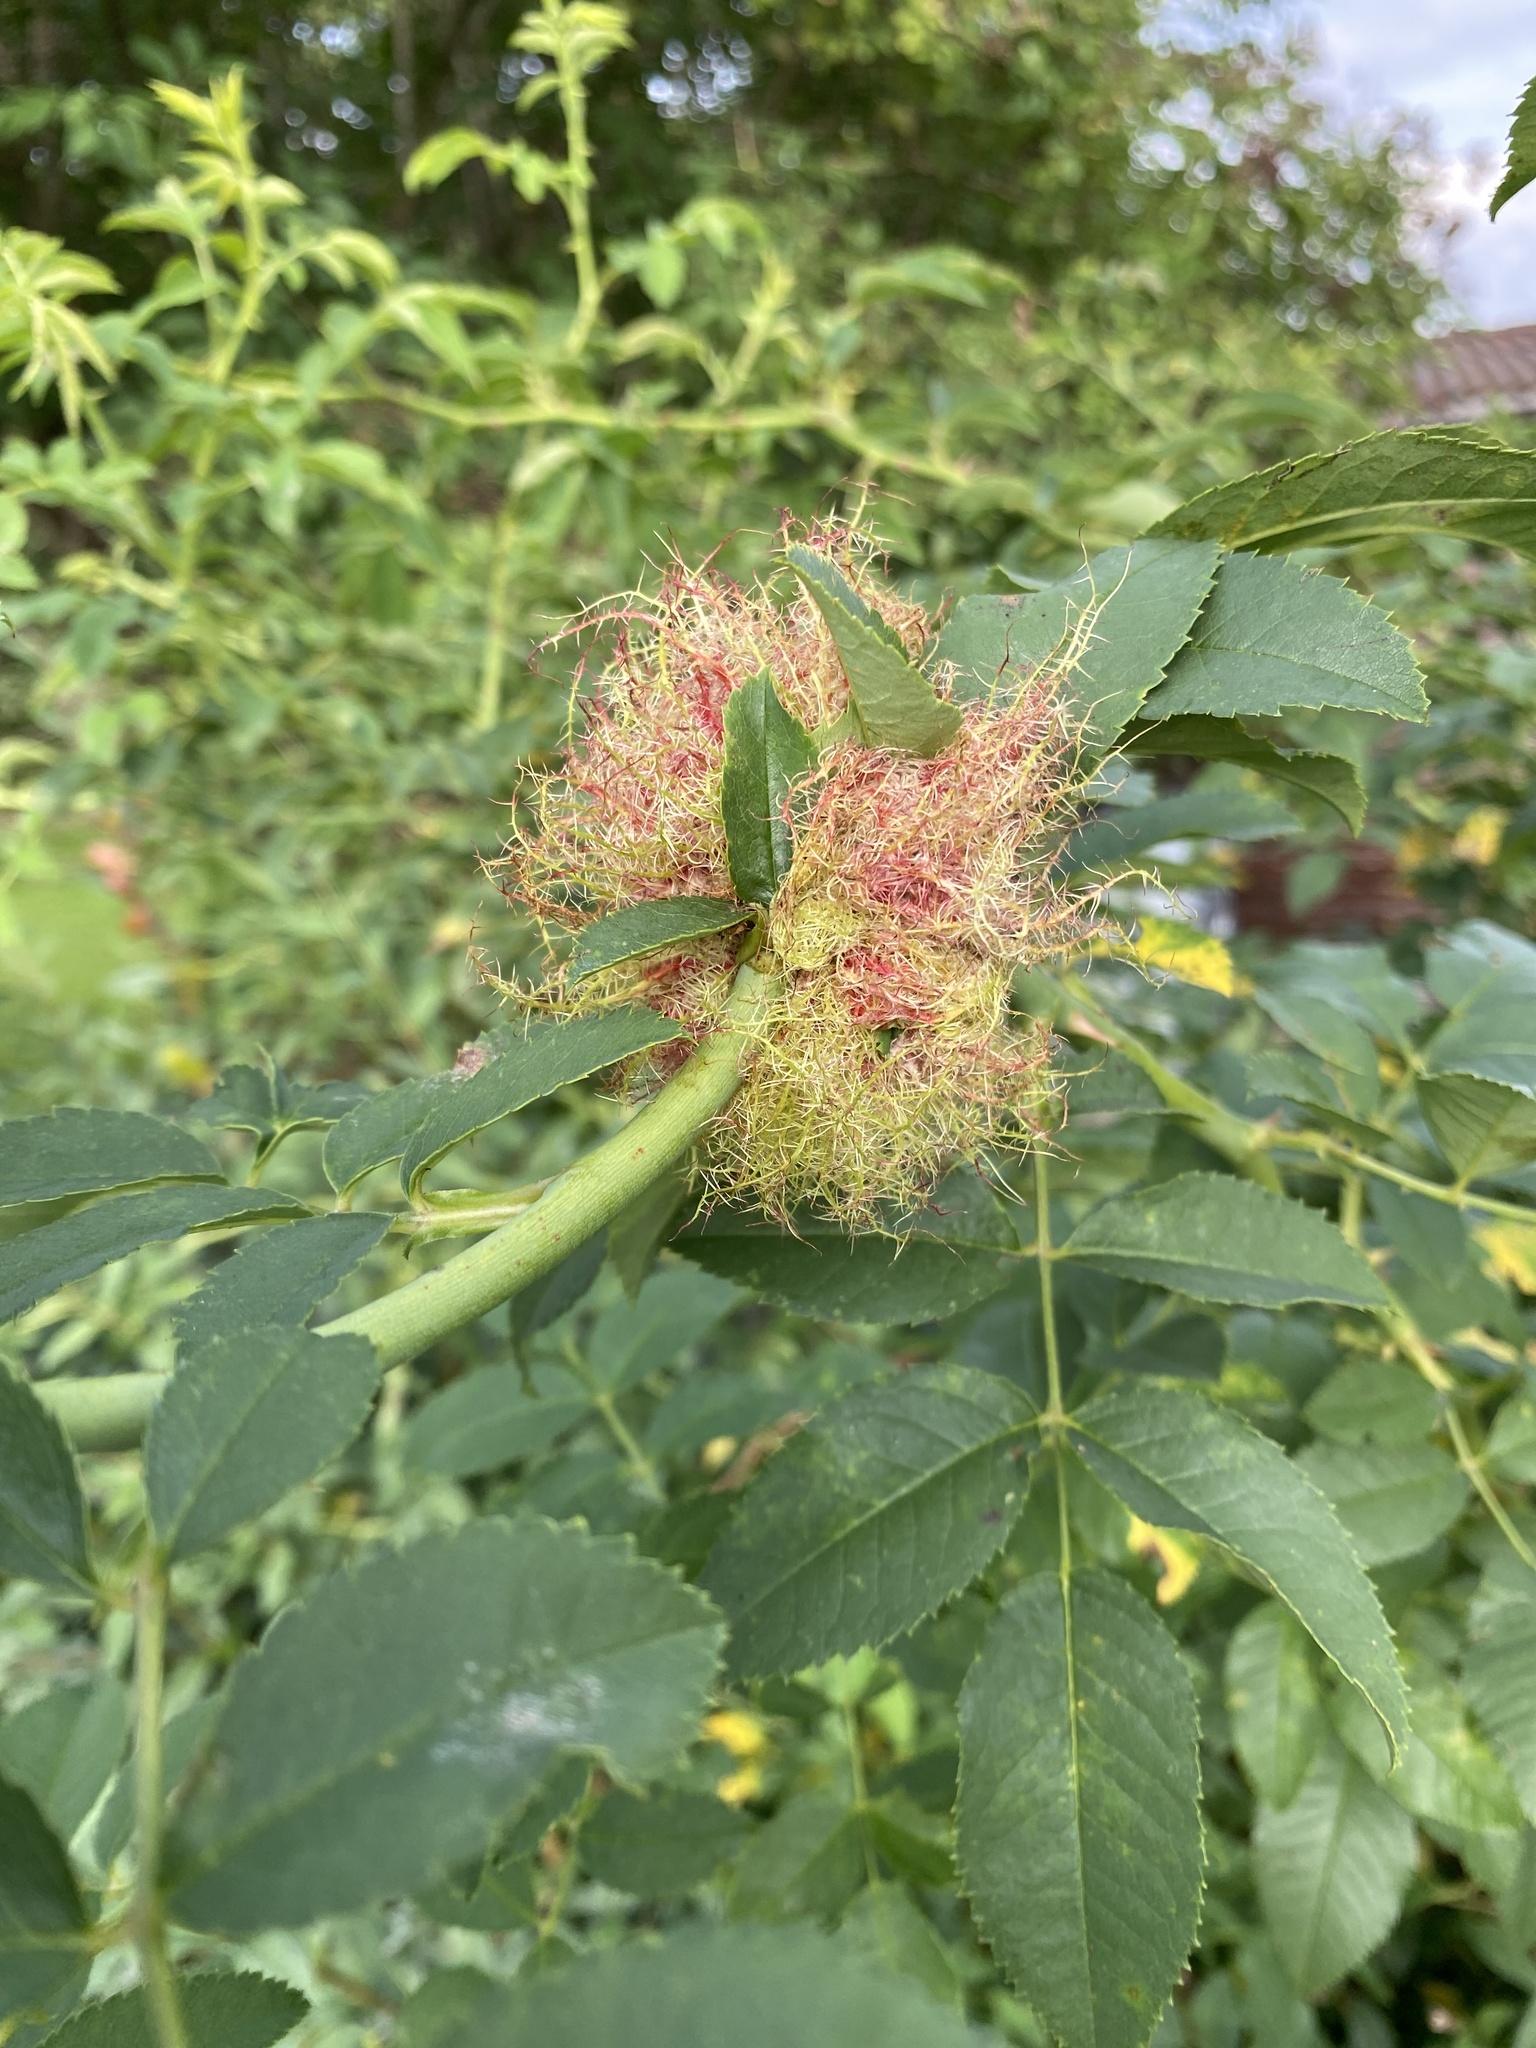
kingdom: Animalia
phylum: Arthropoda
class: Insecta
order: Hymenoptera
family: Cynipidae
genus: Diplolepis
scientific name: Diplolepis rosae
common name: Bedeguar gall
